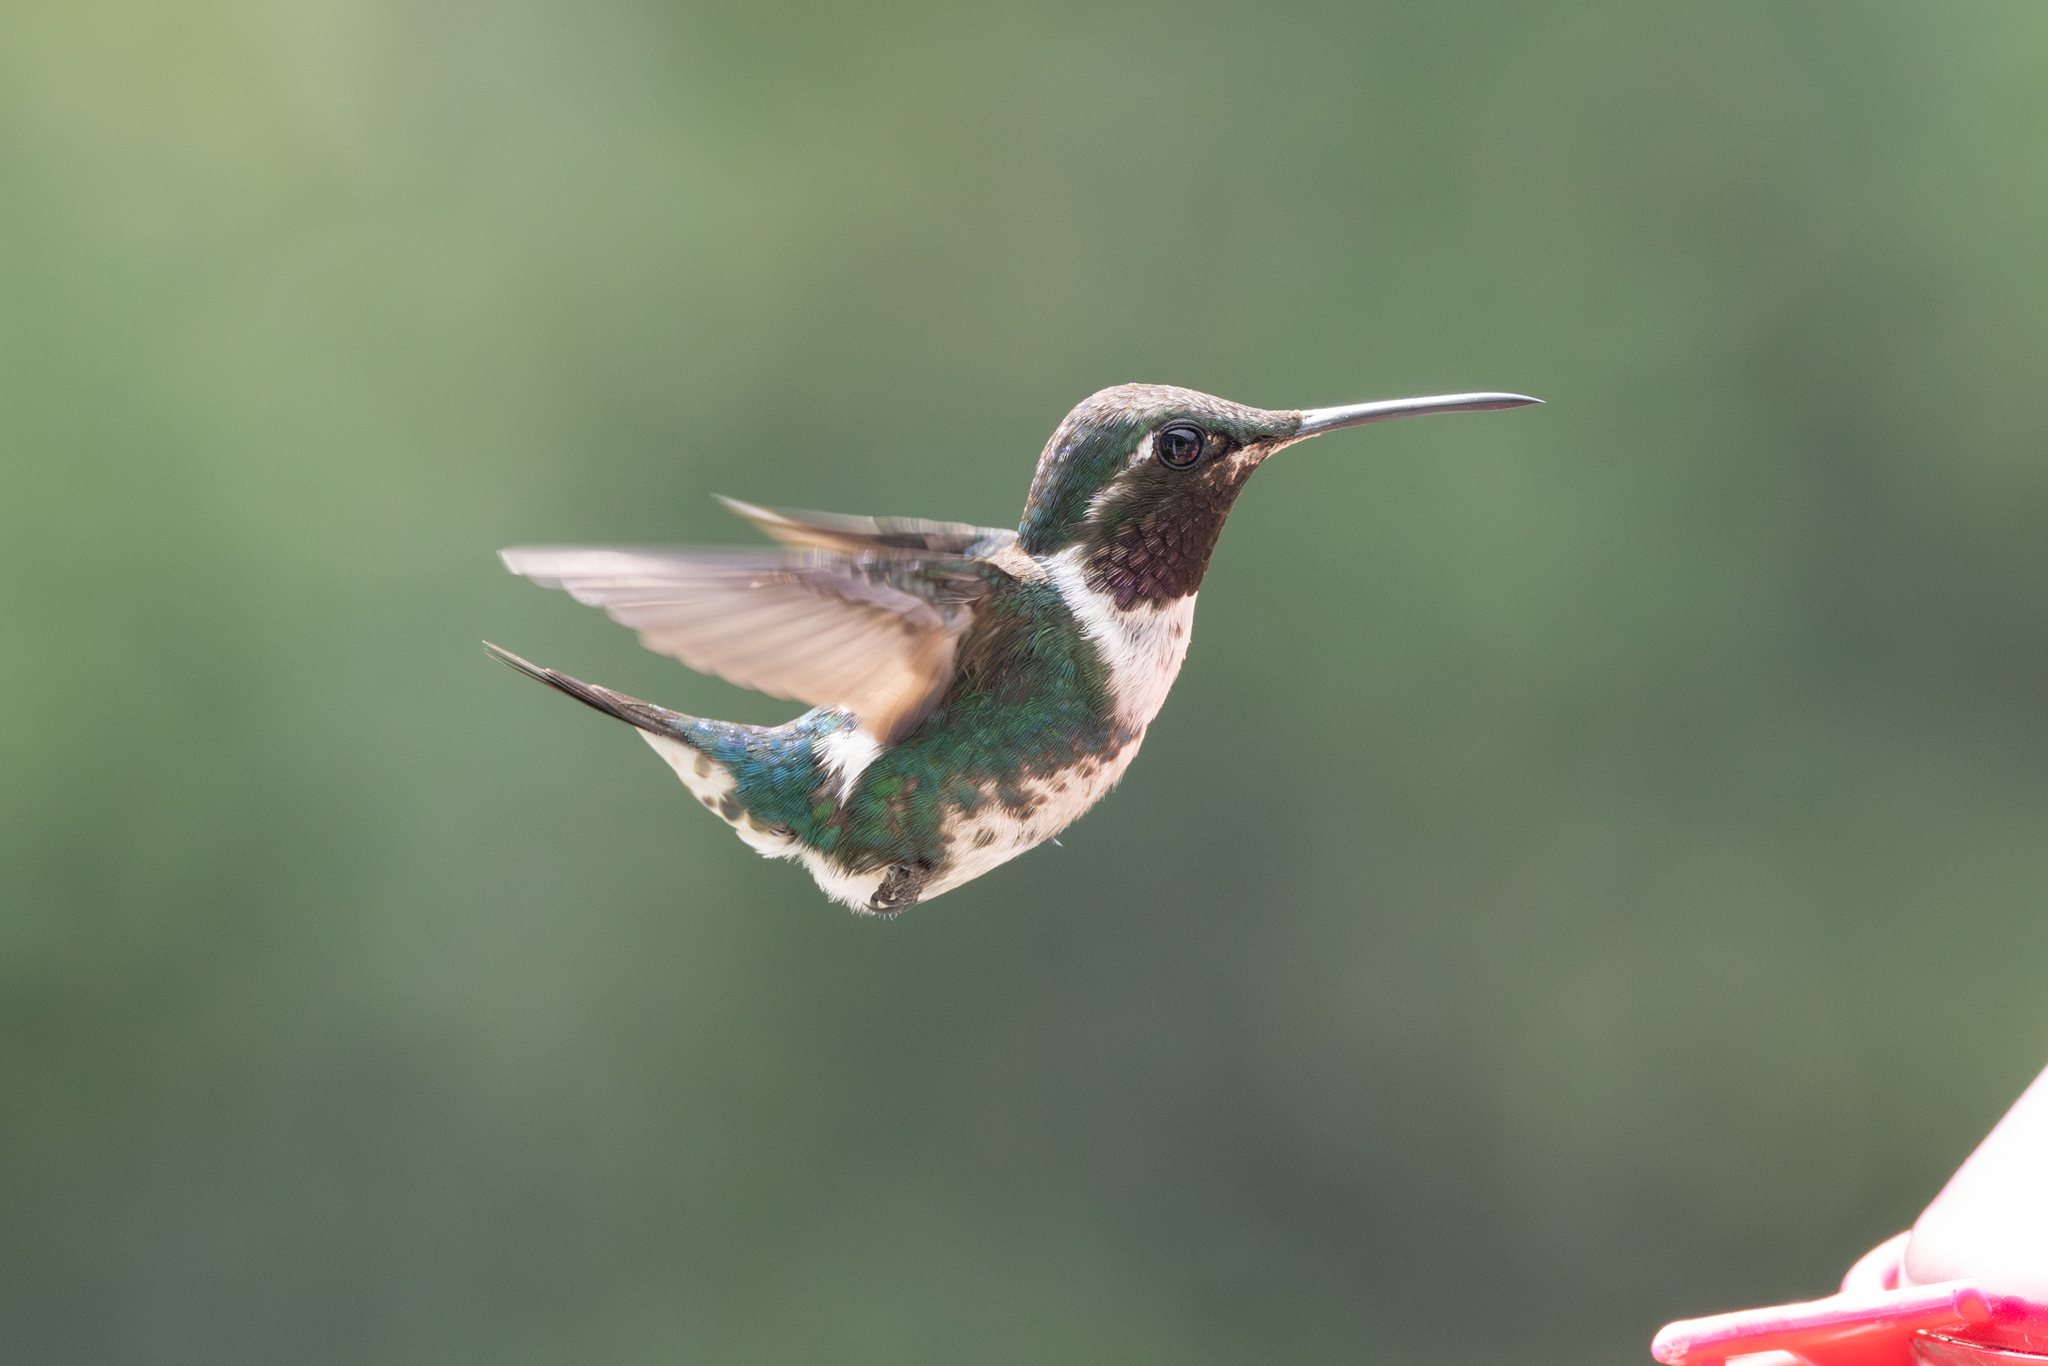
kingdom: Animalia
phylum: Chordata
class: Aves
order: Apodiformes
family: Trochilidae
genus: Chaetocercus
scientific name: Chaetocercus mulsant
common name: White-bellied woodstar
